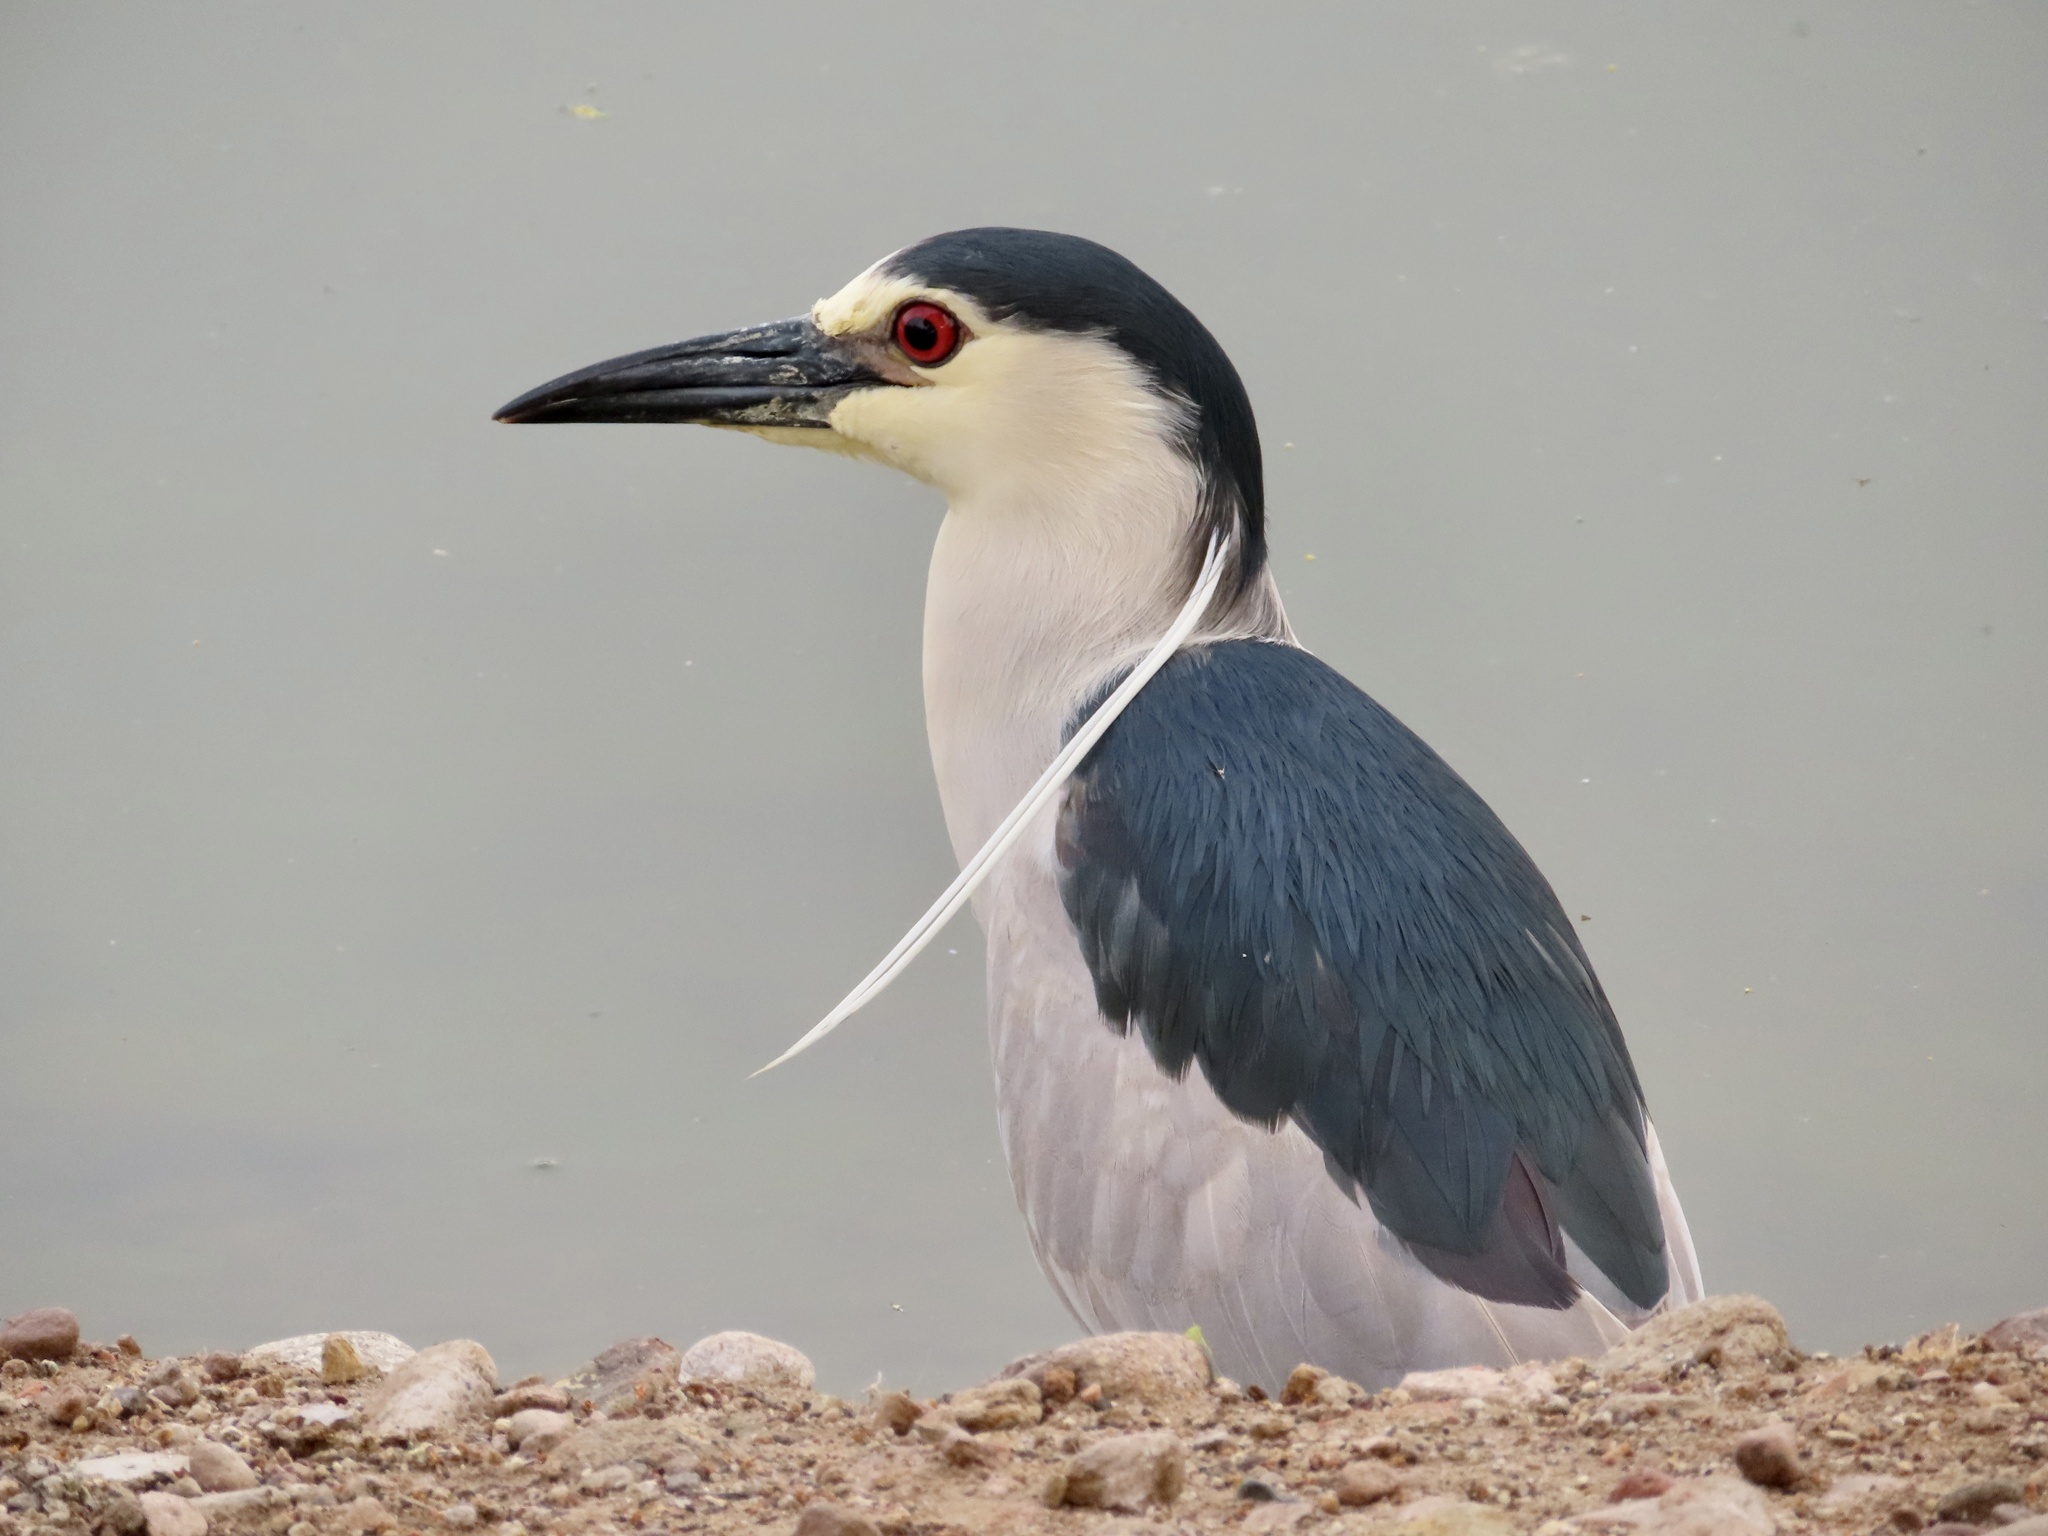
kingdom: Animalia
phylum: Chordata
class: Aves
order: Pelecaniformes
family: Ardeidae
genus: Nycticorax
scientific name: Nycticorax nycticorax
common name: Black-crowned night heron
